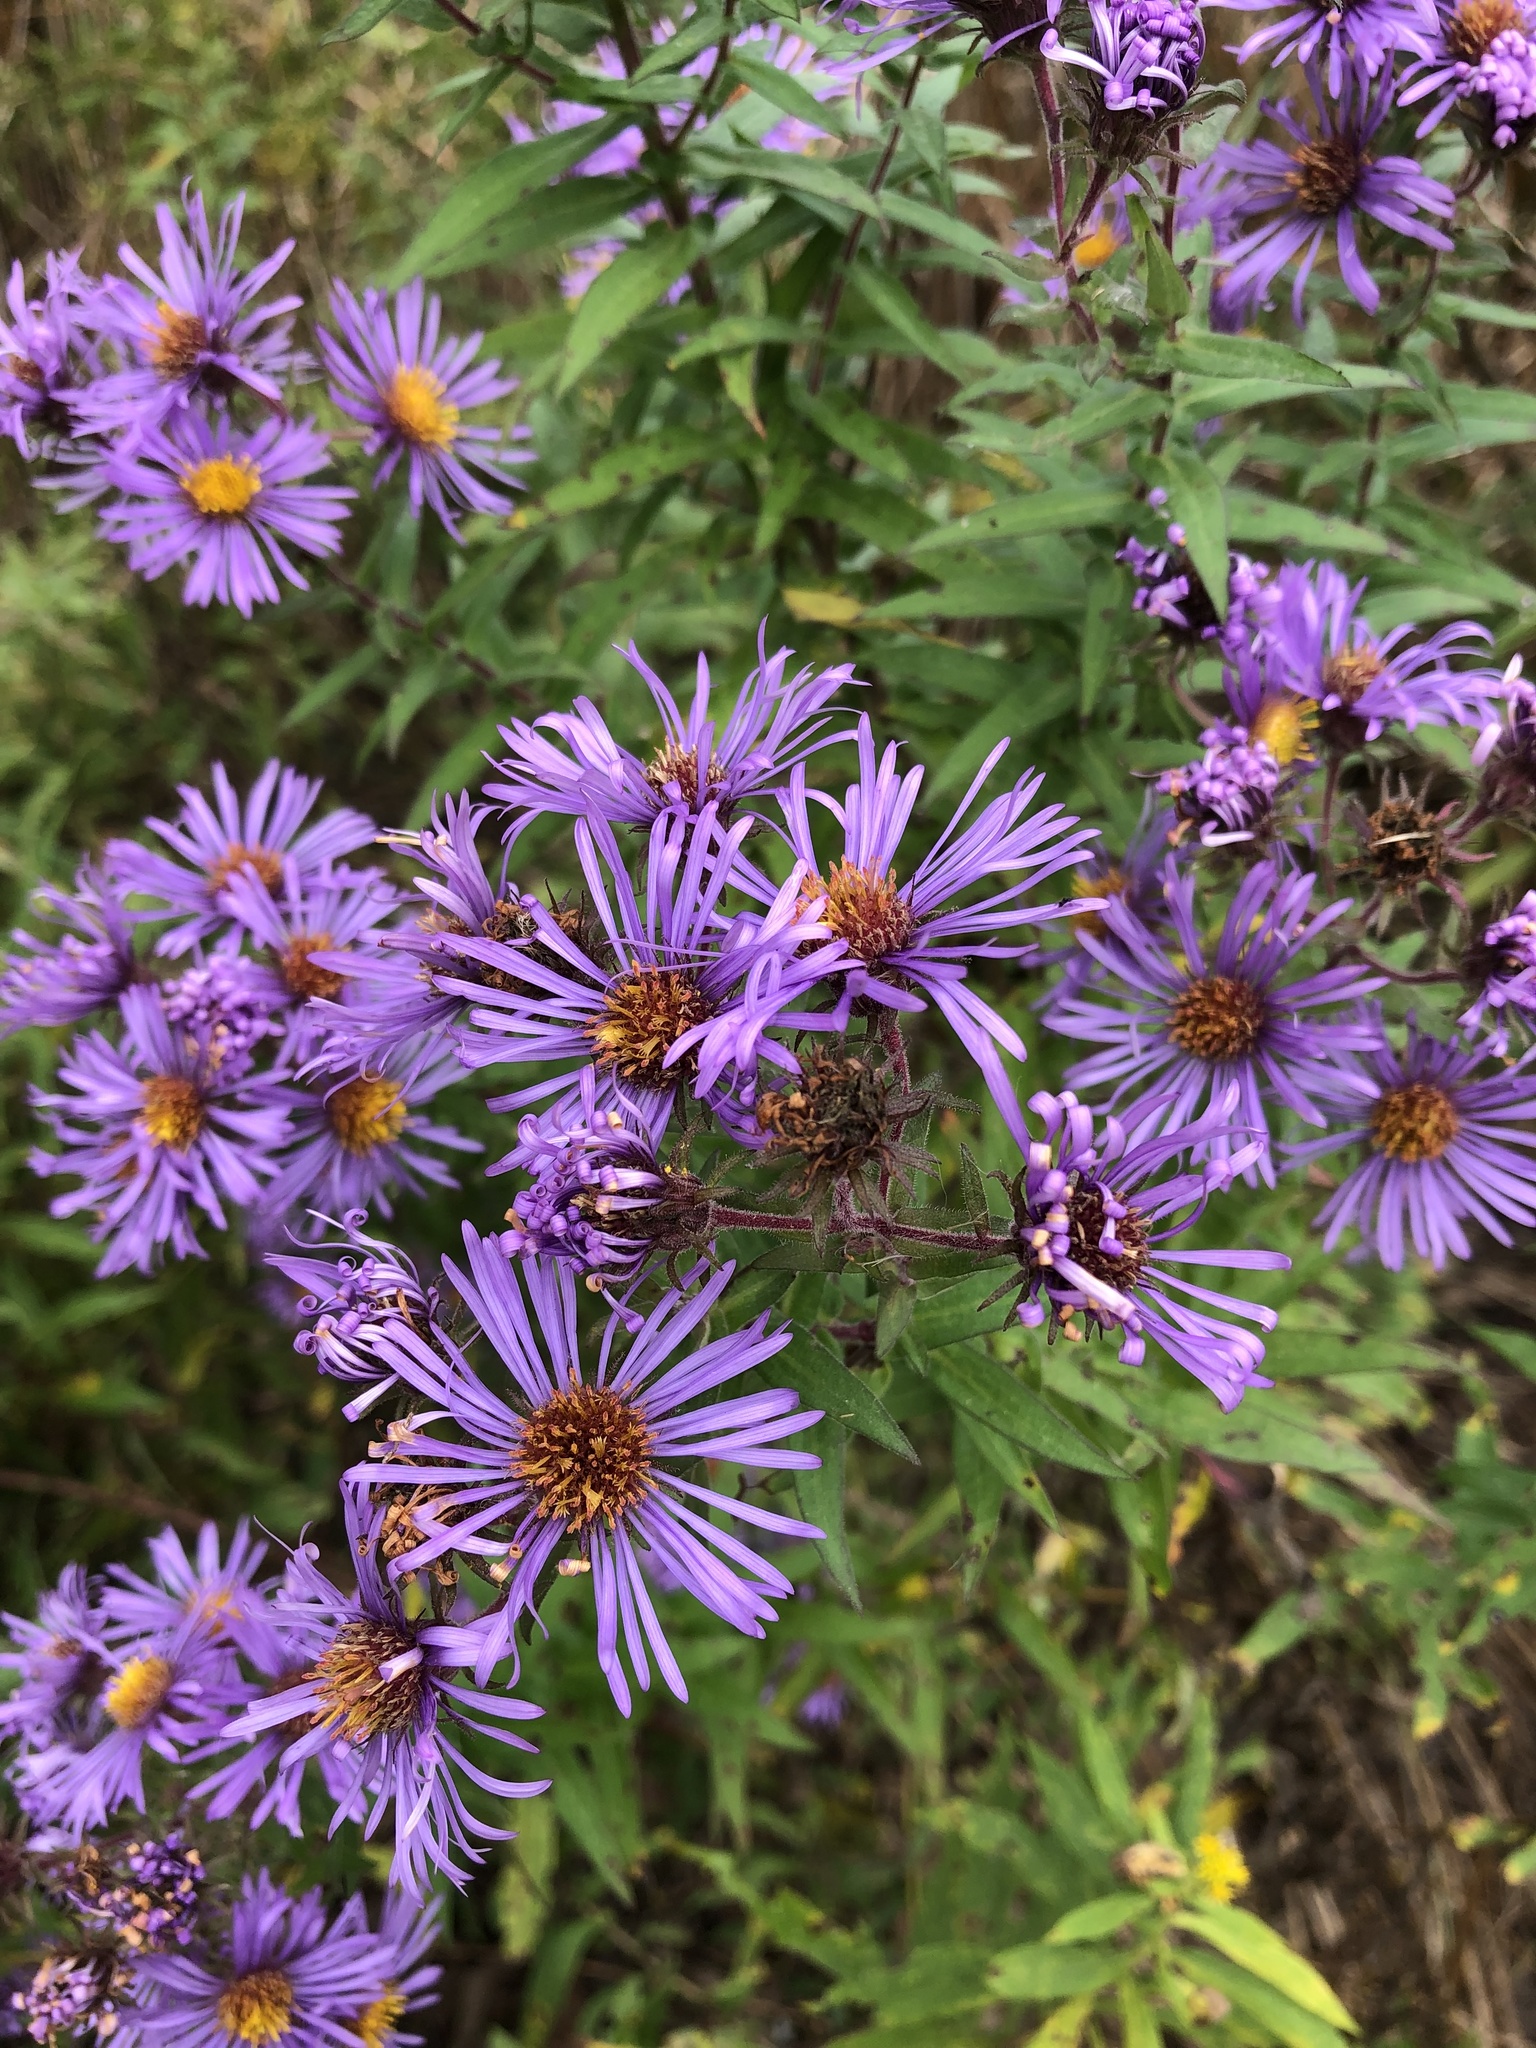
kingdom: Plantae
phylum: Tracheophyta
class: Magnoliopsida
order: Asterales
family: Asteraceae
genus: Symphyotrichum
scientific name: Symphyotrichum novae-angliae
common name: Michaelmas daisy
